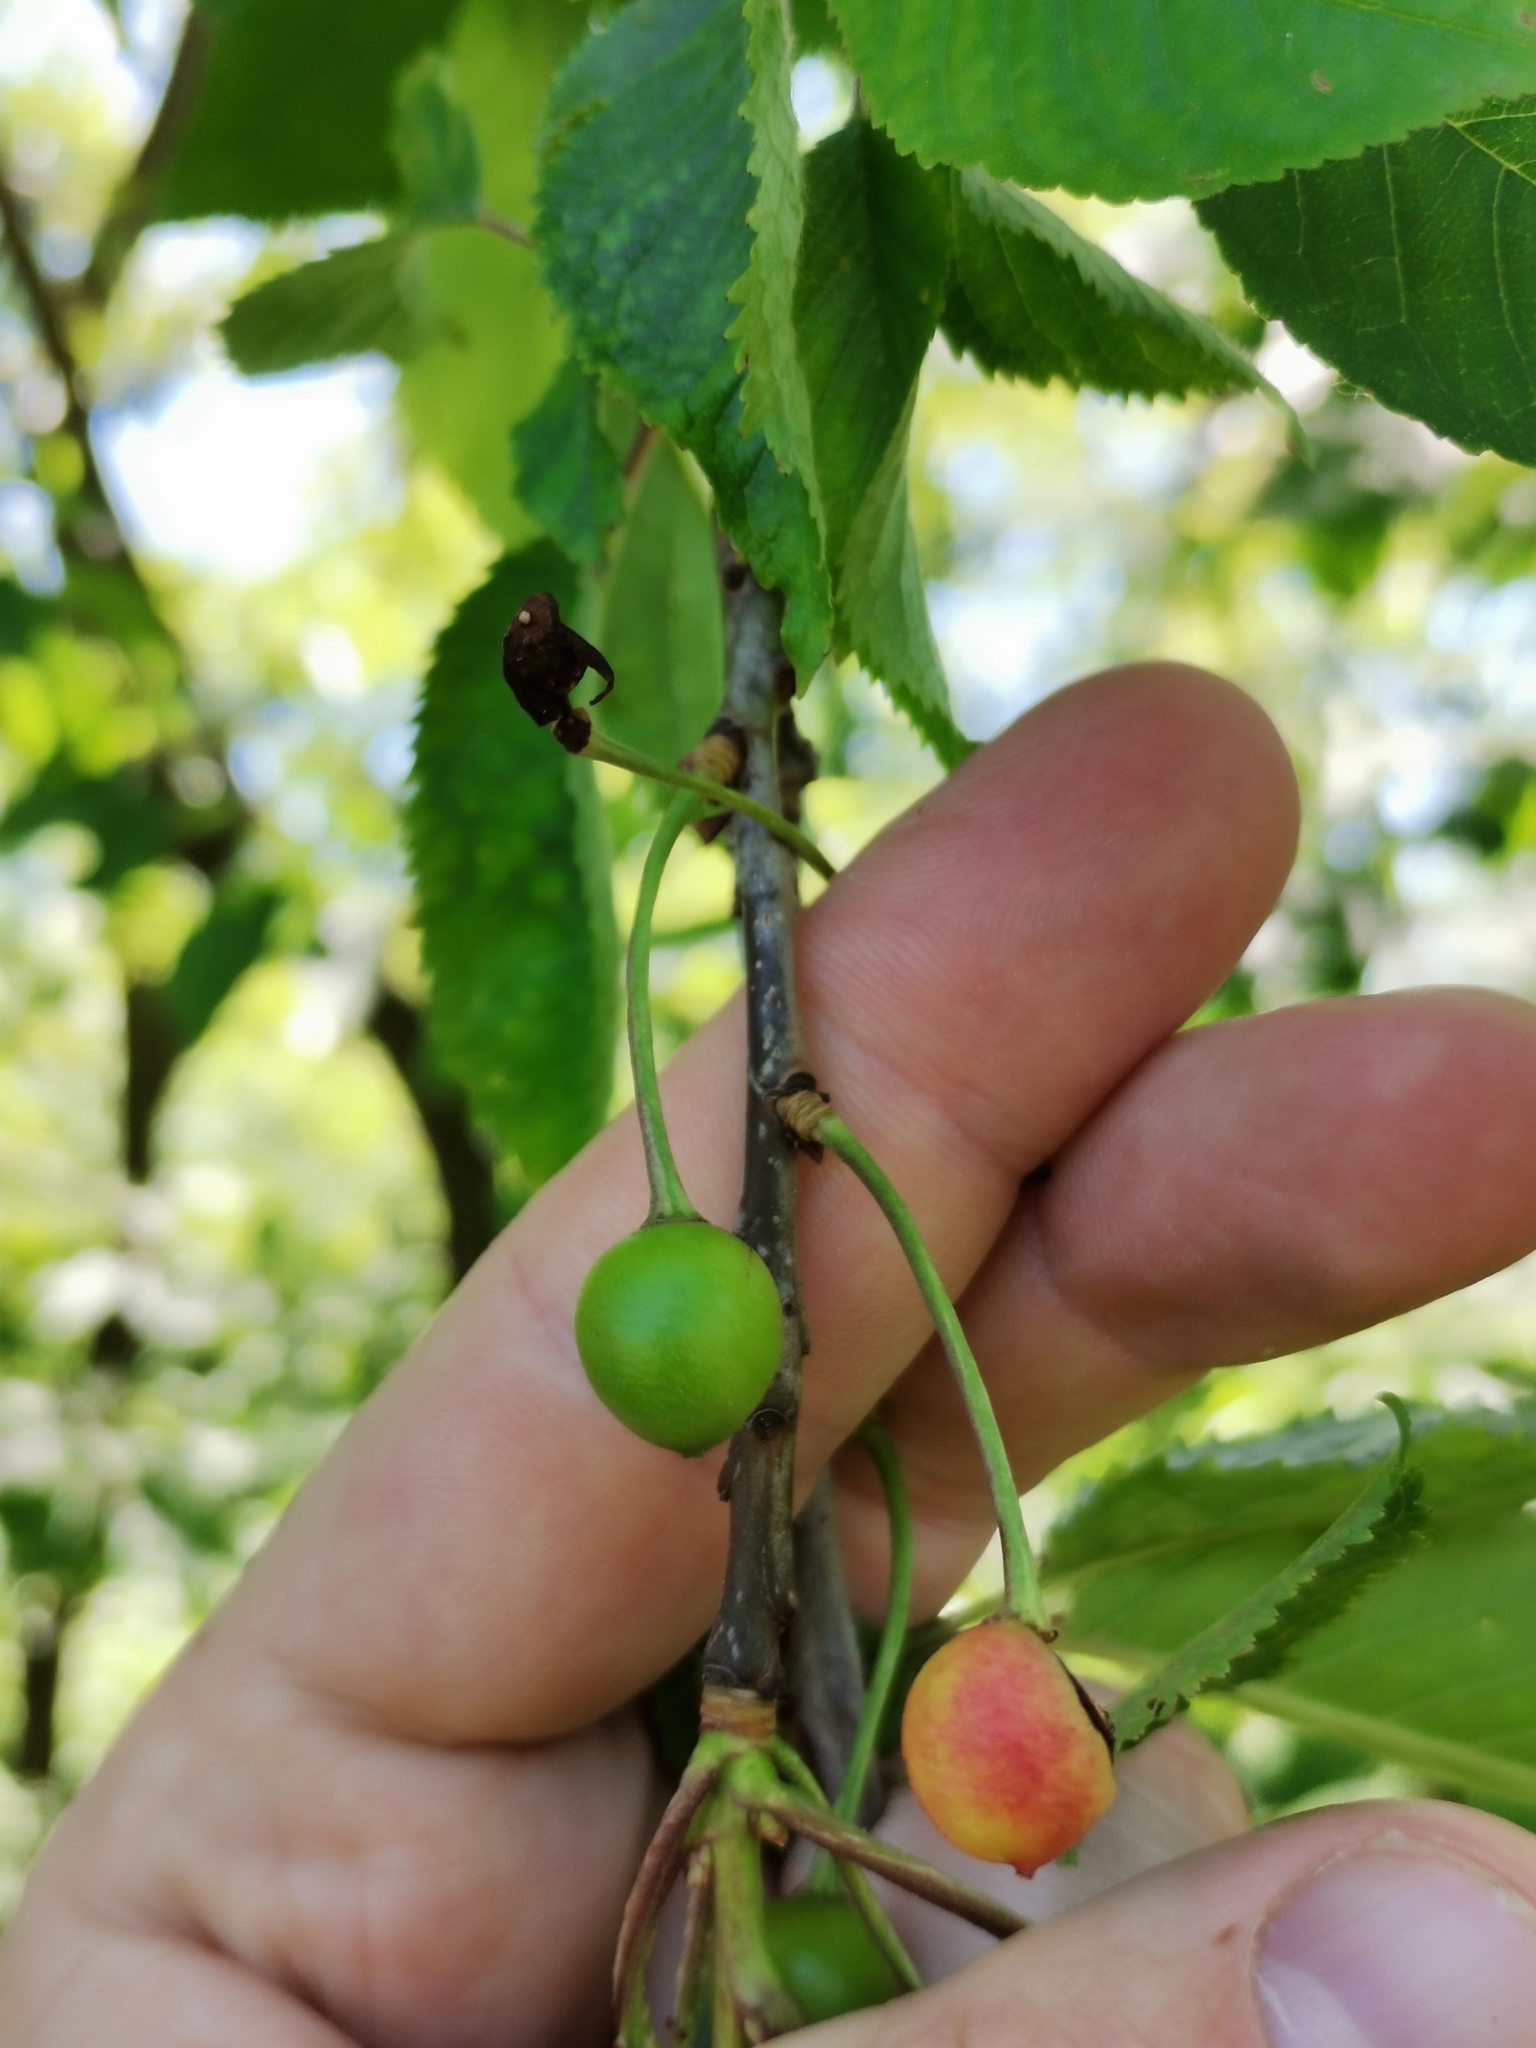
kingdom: Plantae
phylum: Tracheophyta
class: Magnoliopsida
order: Rosales
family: Rosaceae
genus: Prunus
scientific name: Prunus avium
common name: Sweet cherry
